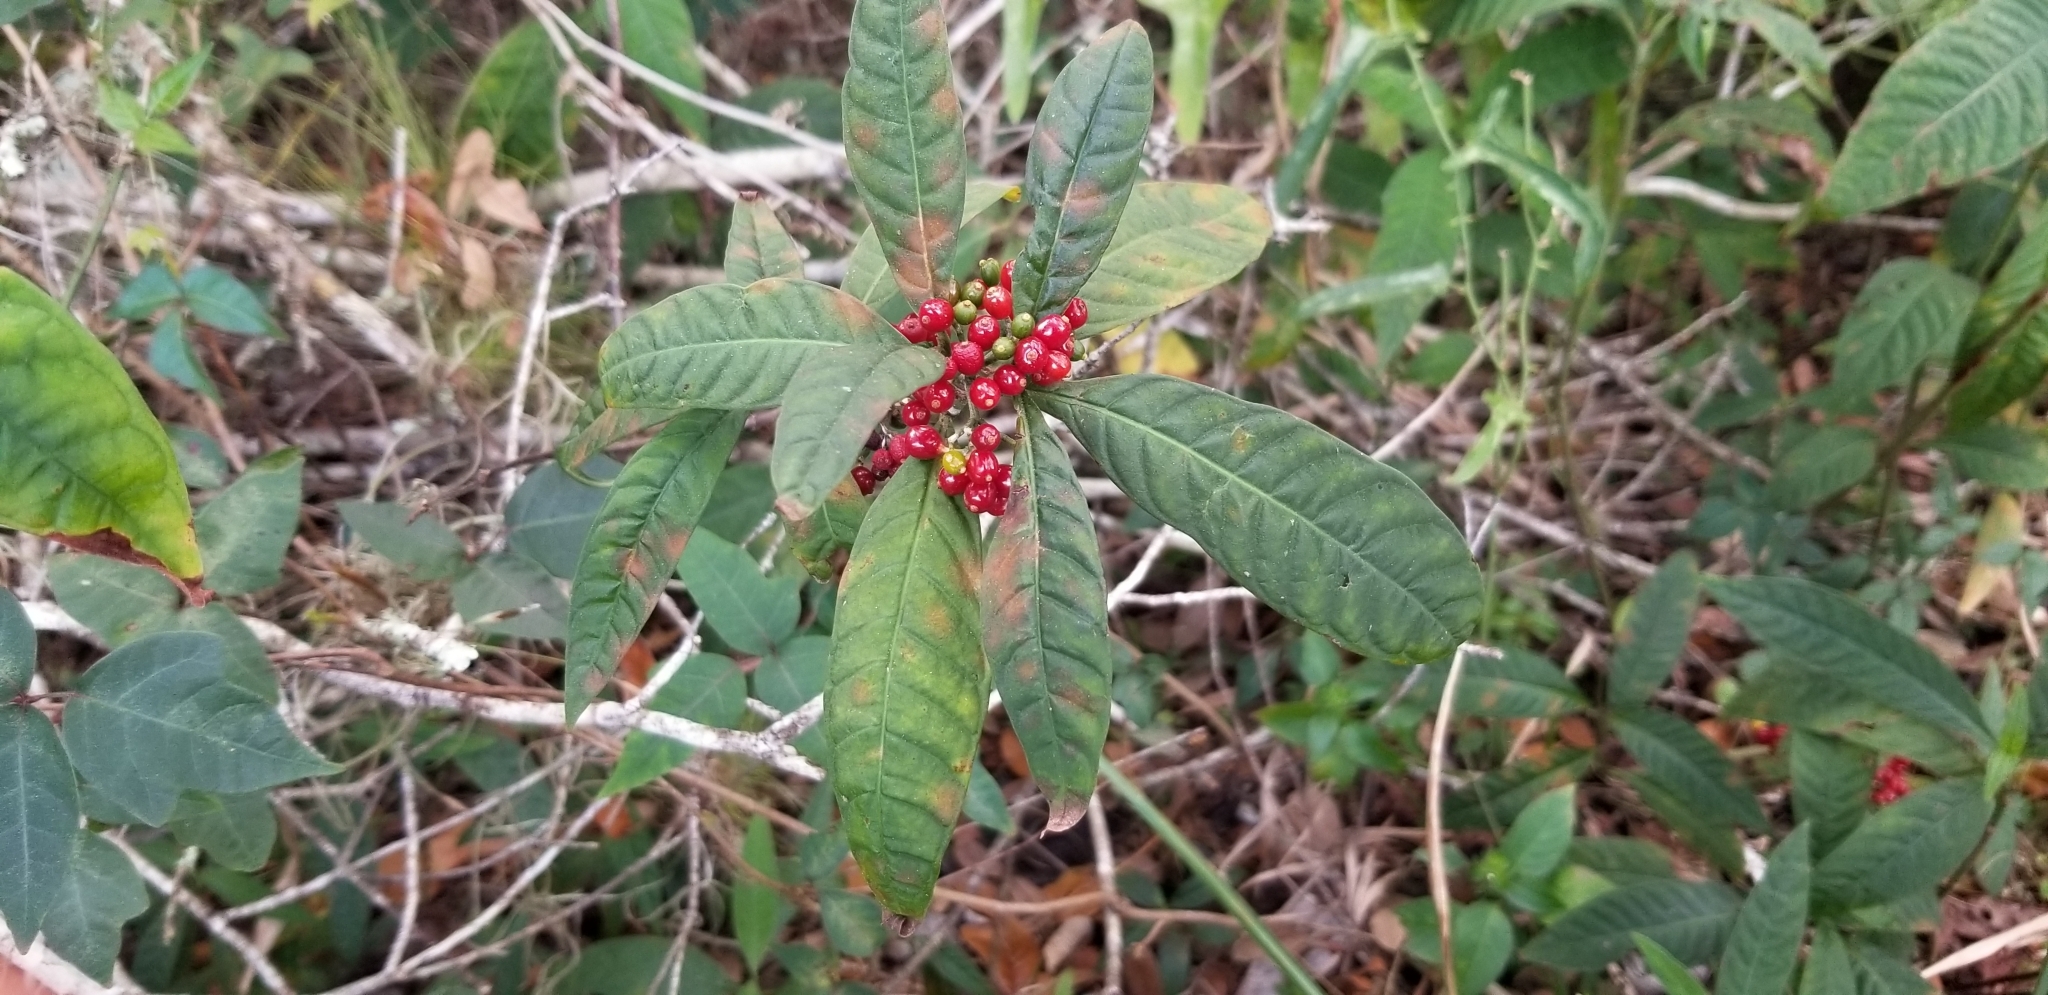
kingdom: Plantae
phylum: Tracheophyta
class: Magnoliopsida
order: Gentianales
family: Rubiaceae
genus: Psychotria
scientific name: Psychotria tenuifolia
